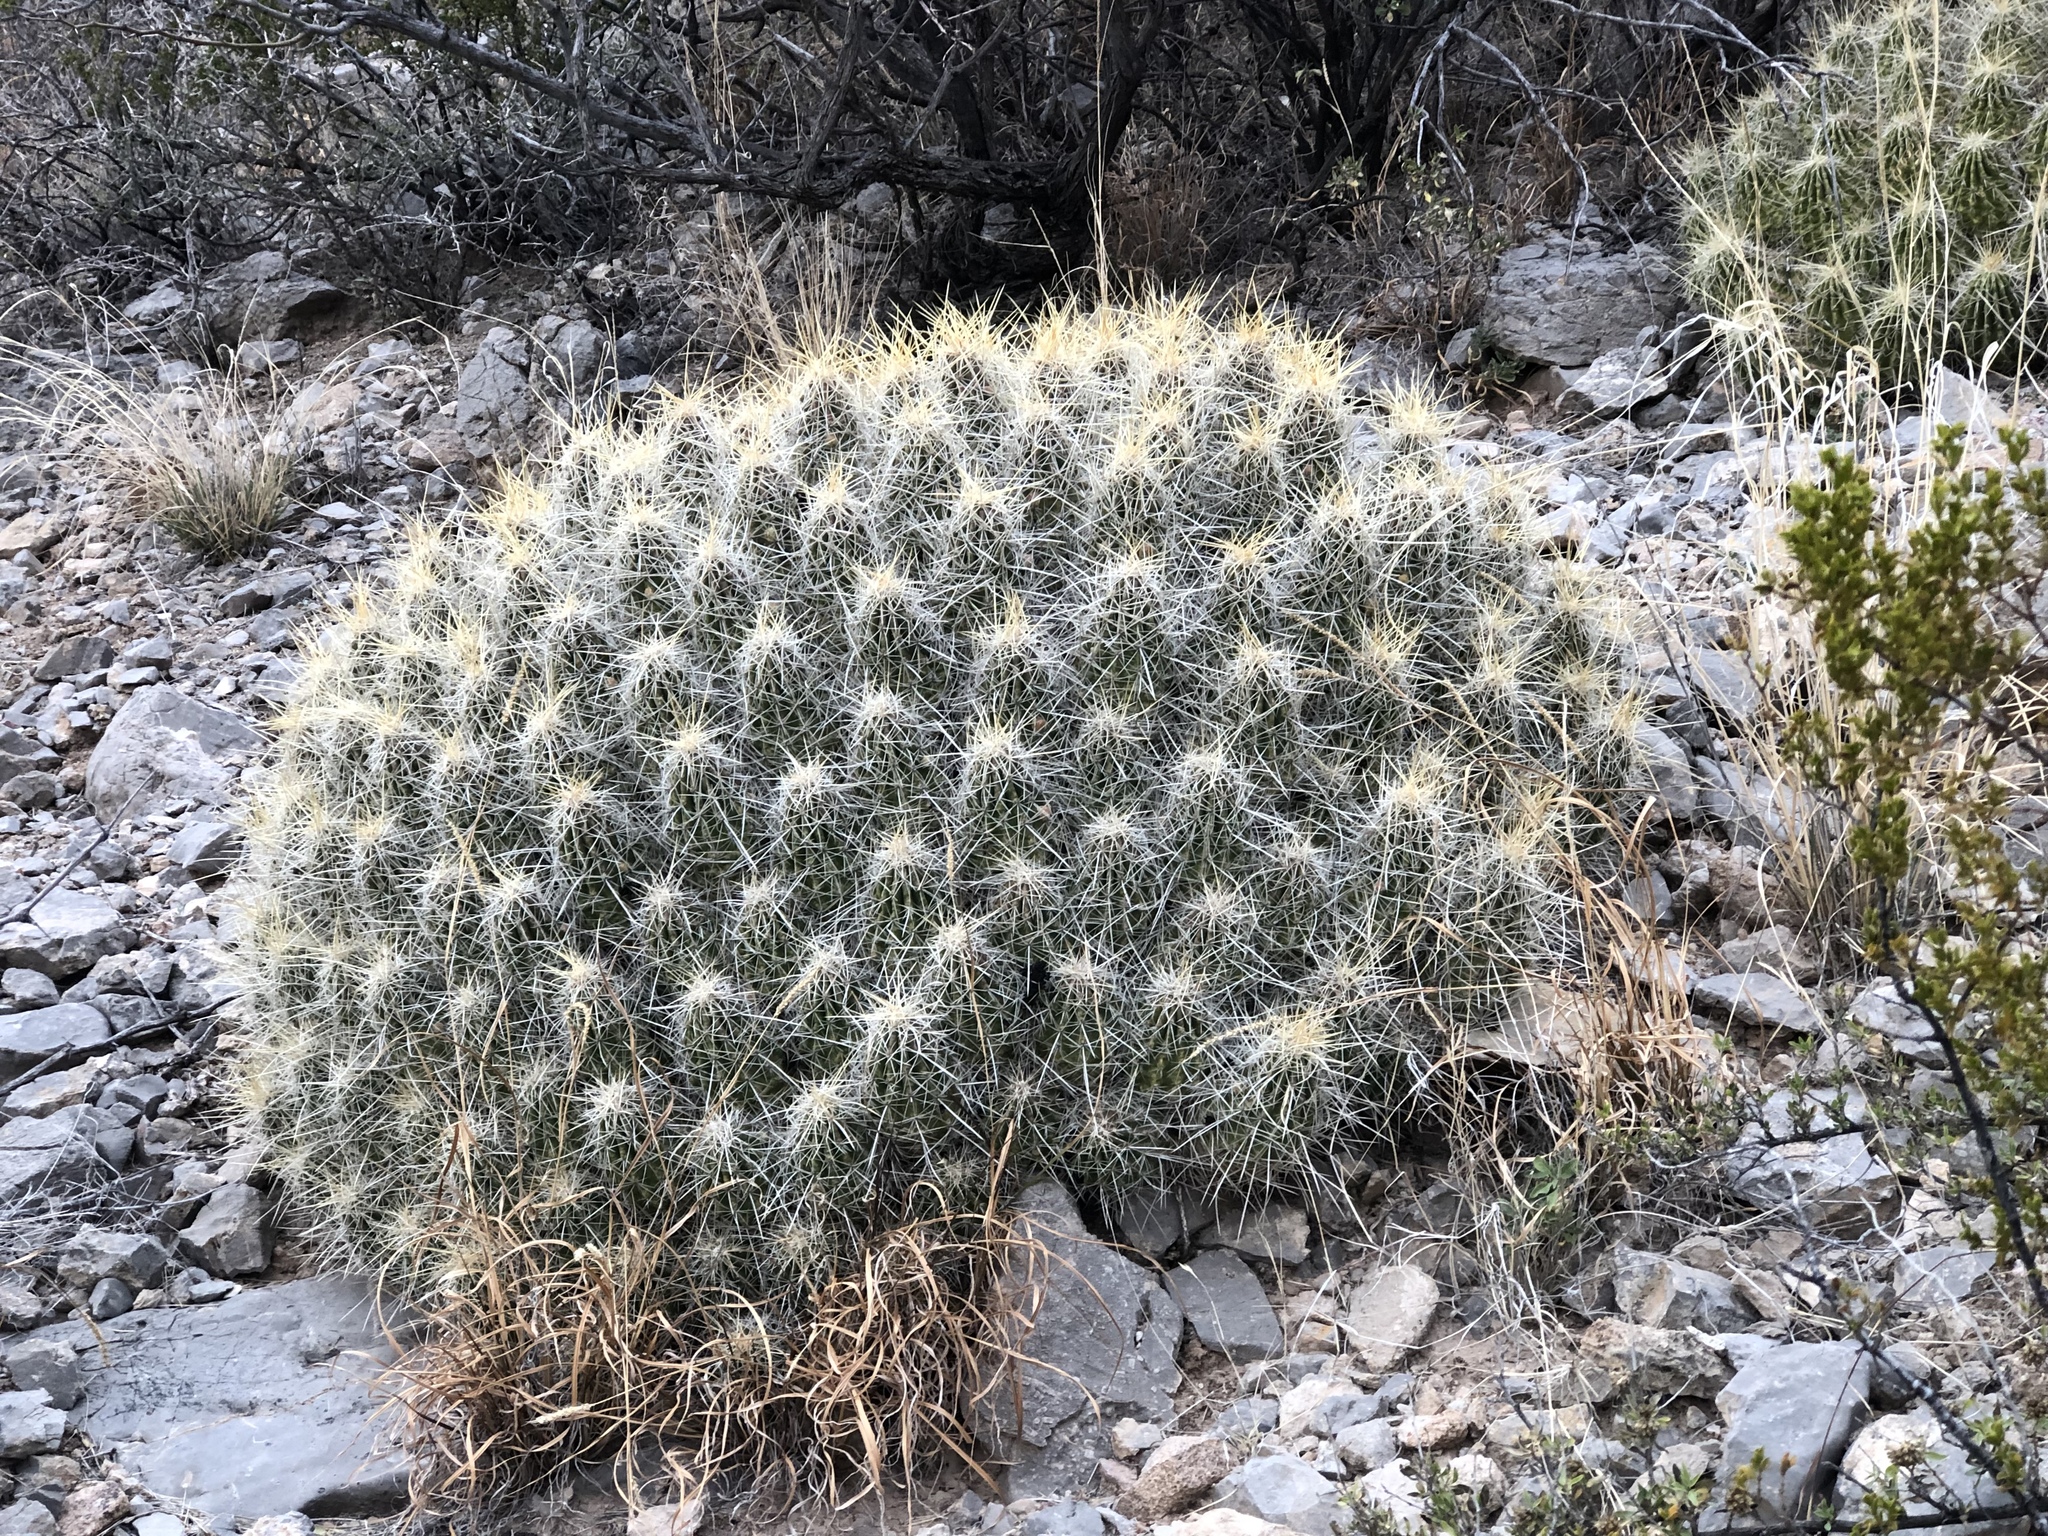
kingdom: Plantae
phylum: Tracheophyta
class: Magnoliopsida
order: Caryophyllales
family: Cactaceae
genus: Echinocereus
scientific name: Echinocereus stramineus
